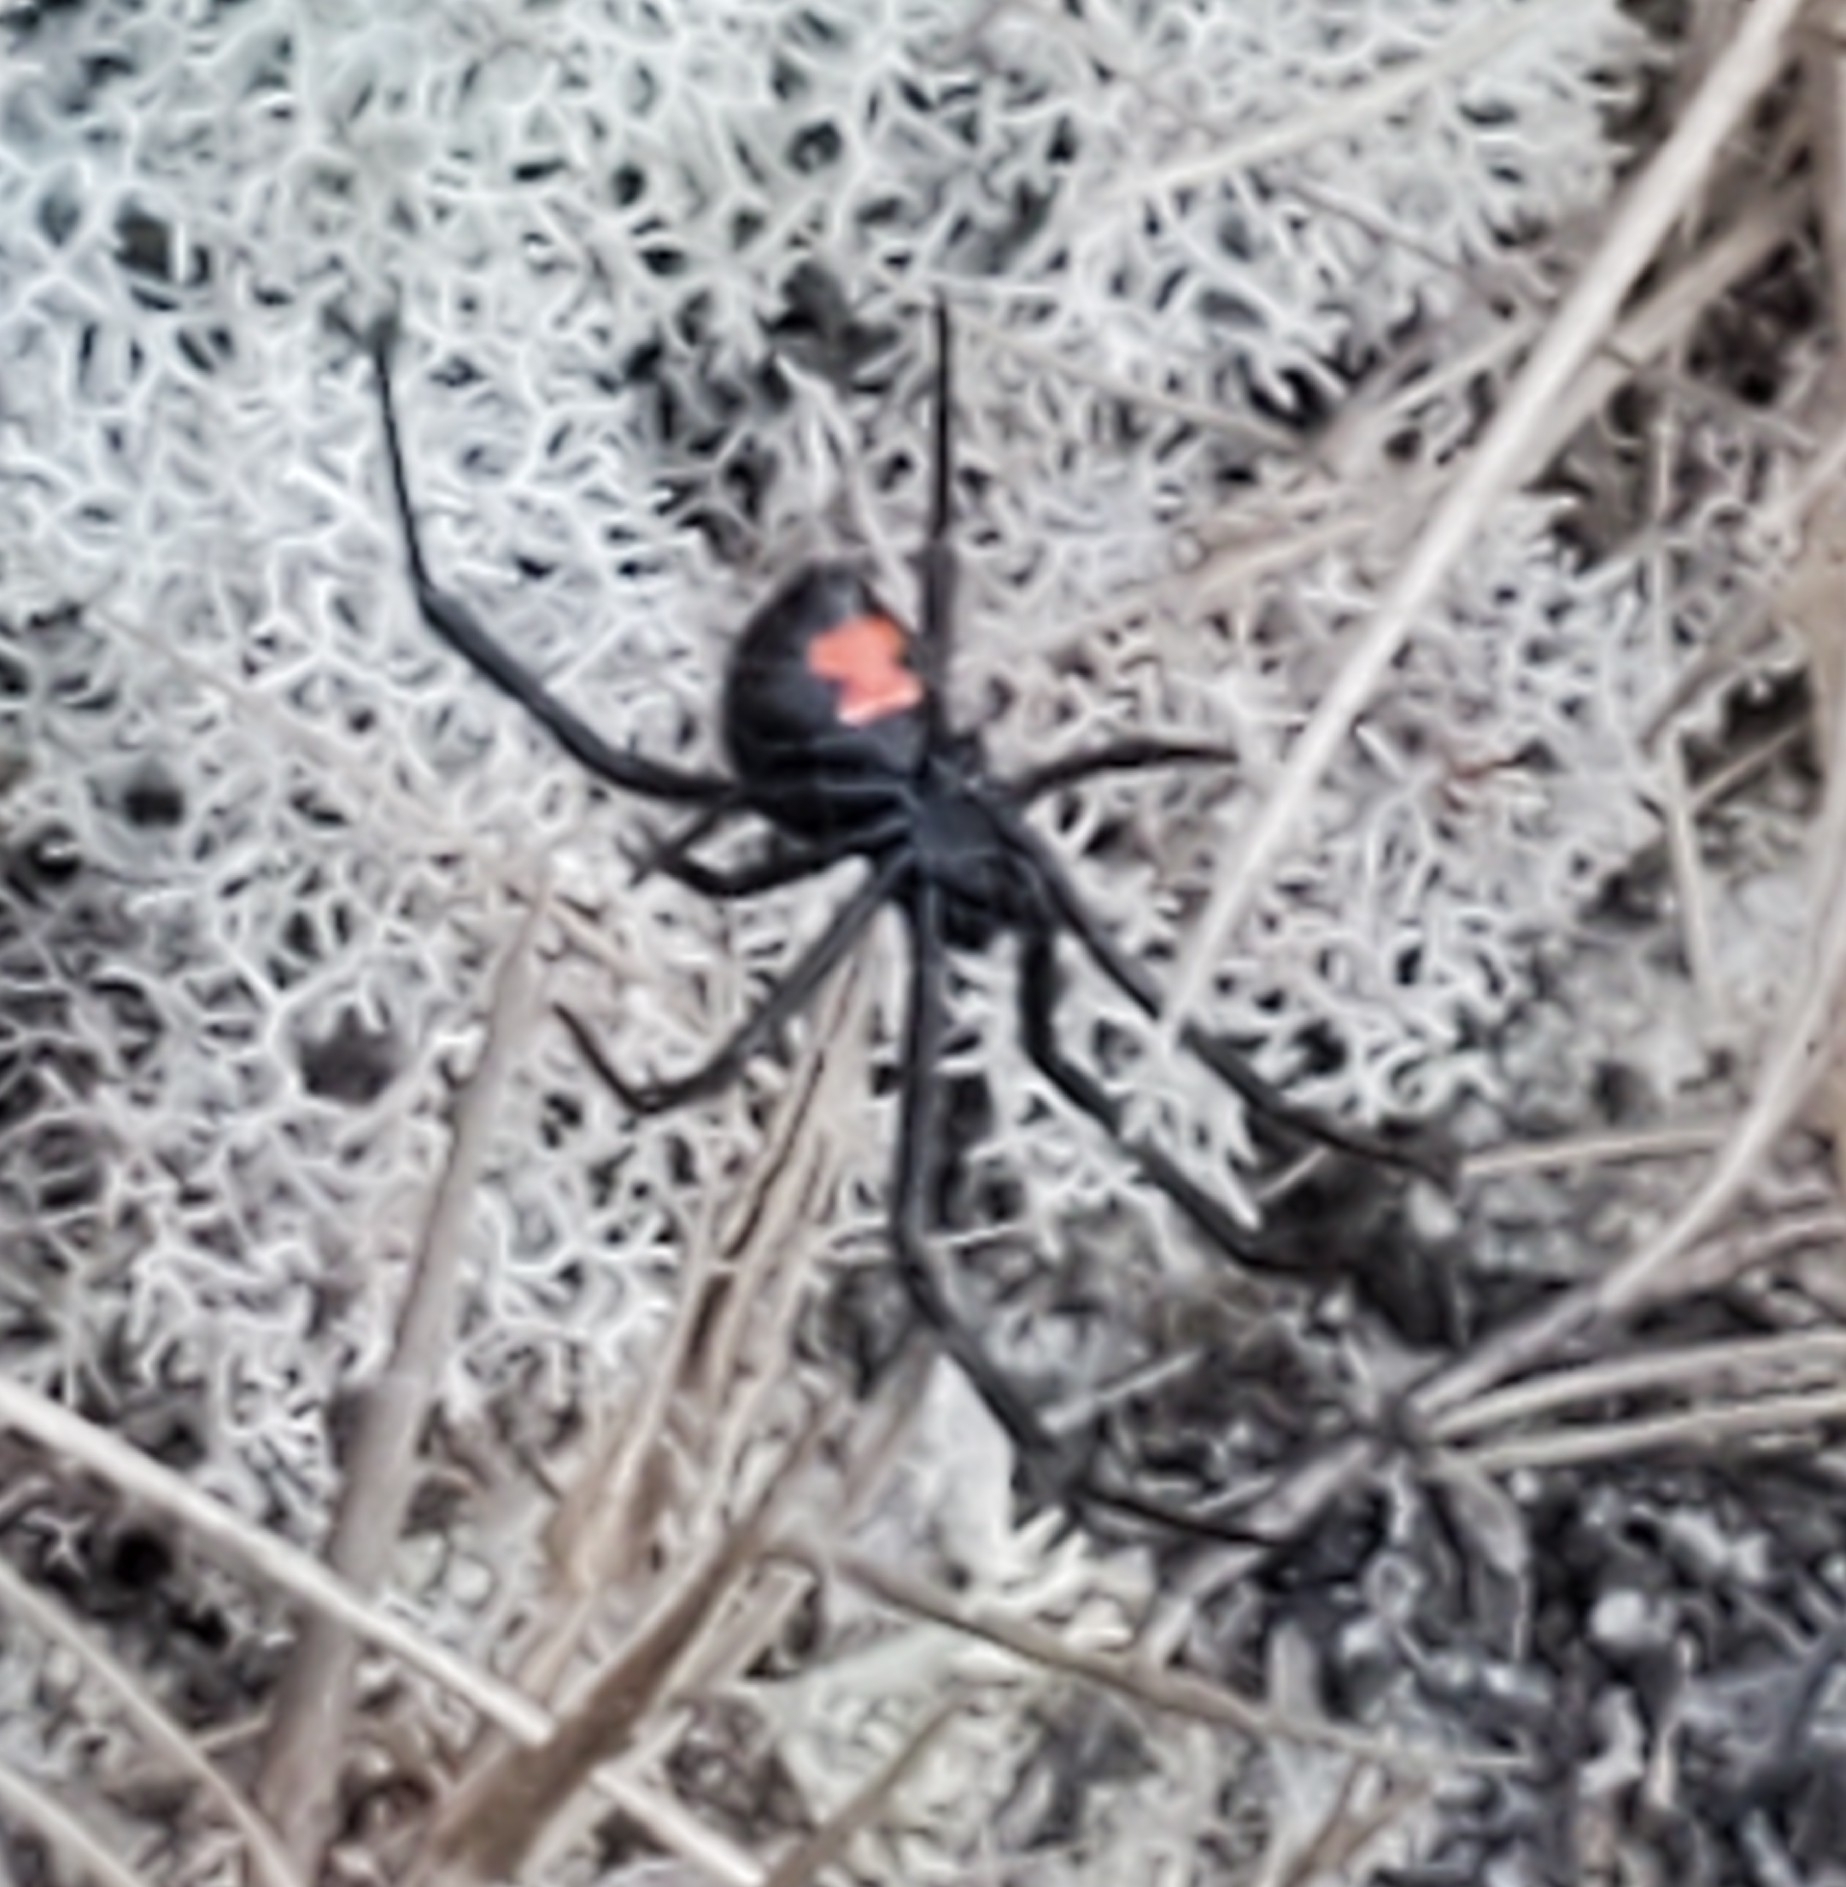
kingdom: Animalia
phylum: Arthropoda
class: Arachnida
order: Araneae
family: Theridiidae
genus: Latrodectus
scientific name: Latrodectus mactans
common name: Cobweb spiders
